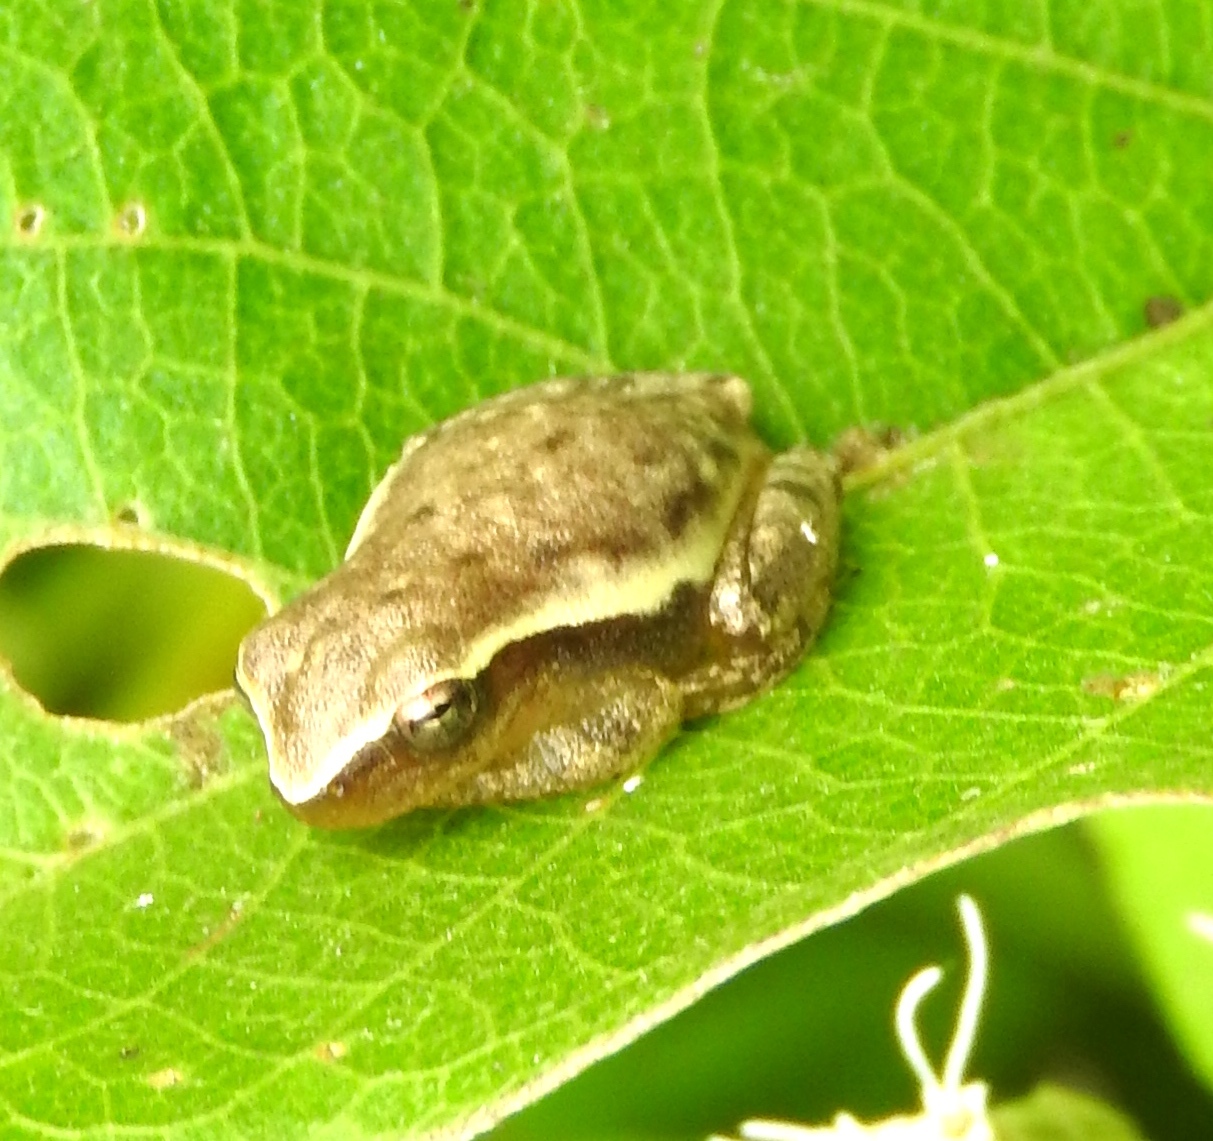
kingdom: Animalia
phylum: Chordata
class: Amphibia
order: Anura
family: Hylidae
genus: Tlalocohyla
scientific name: Tlalocohyla smithii
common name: Dwarf mexican treefrog
